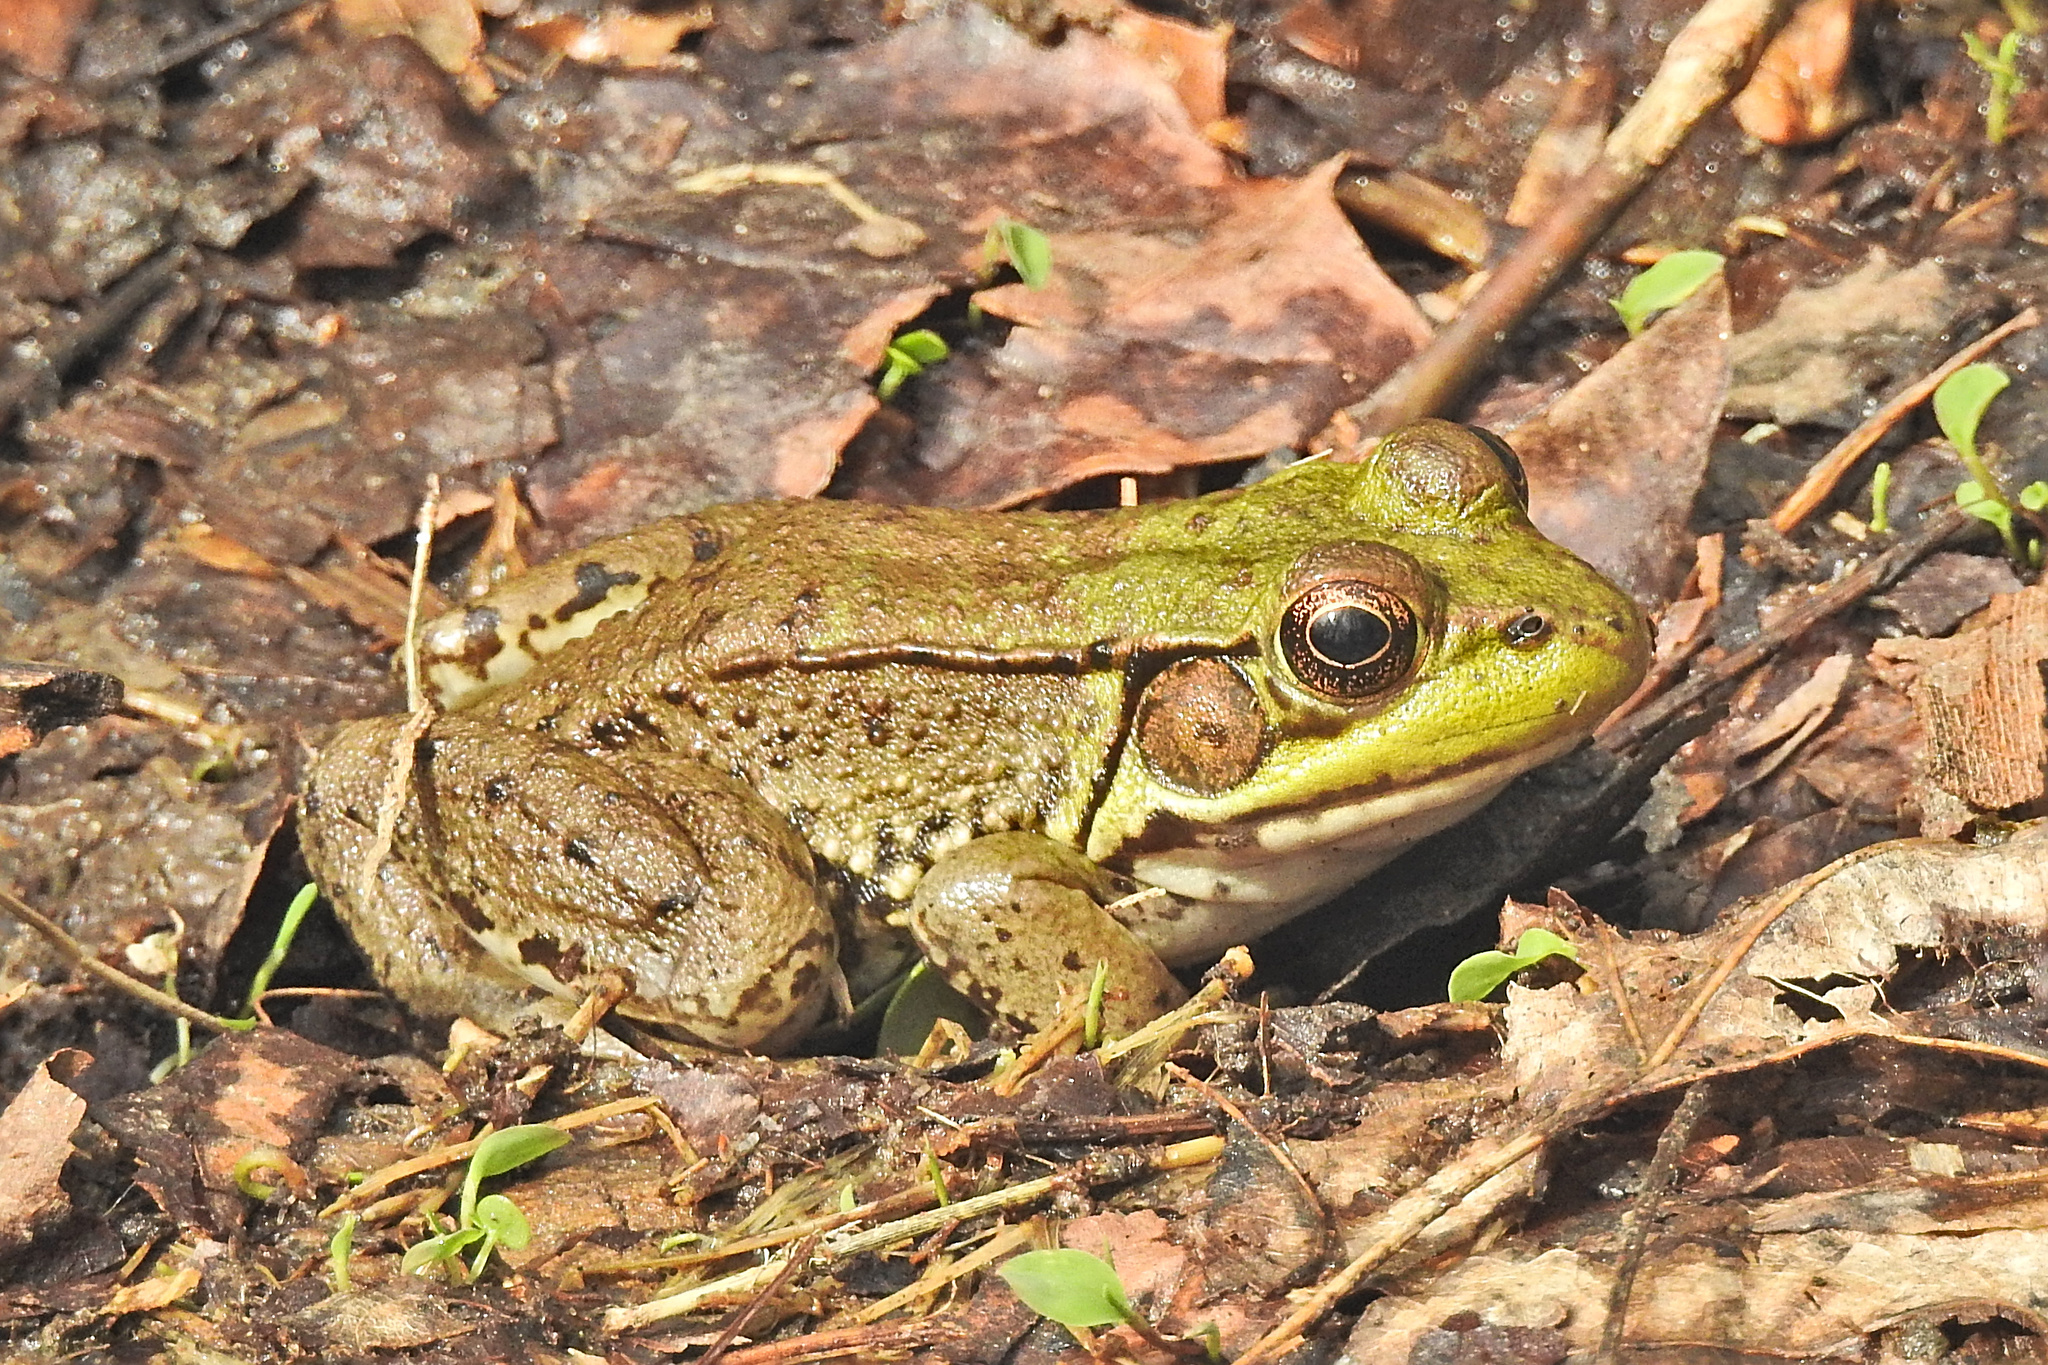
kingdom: Animalia
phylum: Chordata
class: Amphibia
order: Anura
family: Ranidae
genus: Lithobates
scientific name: Lithobates clamitans
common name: Green frog
